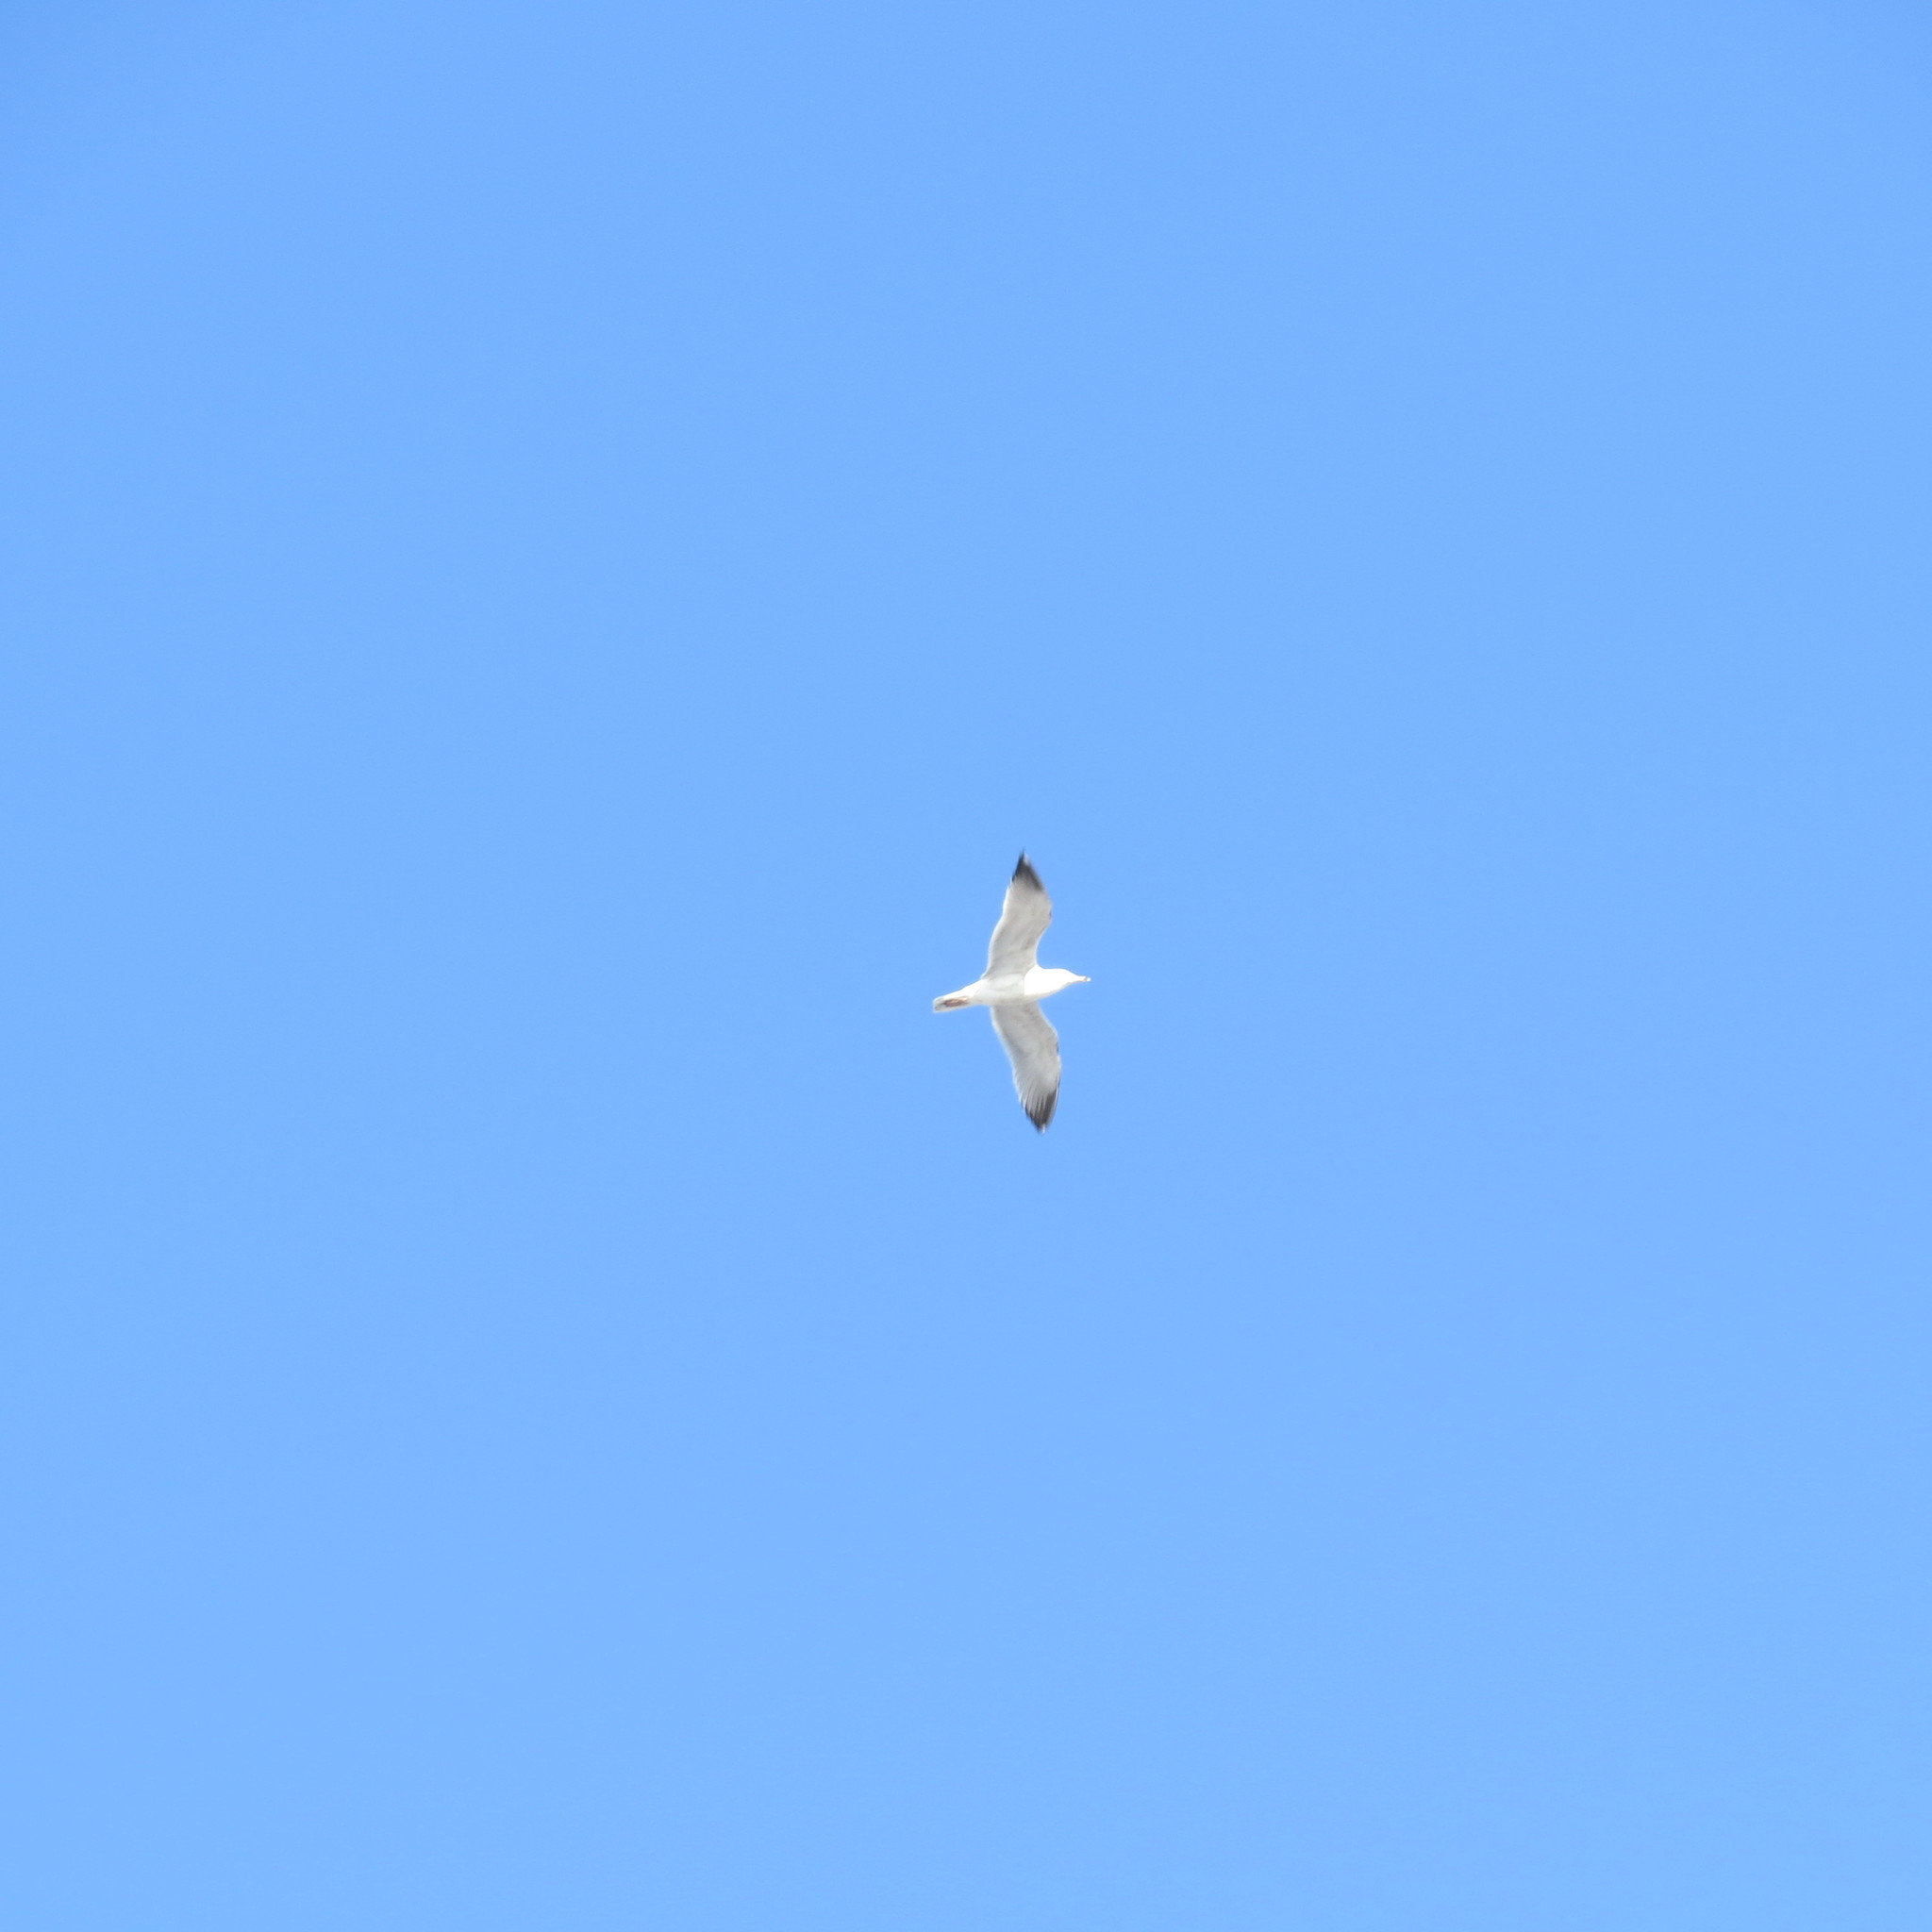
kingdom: Animalia
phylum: Chordata
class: Aves
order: Charadriiformes
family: Laridae
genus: Larus
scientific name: Larus argentatus
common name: Herring gull
